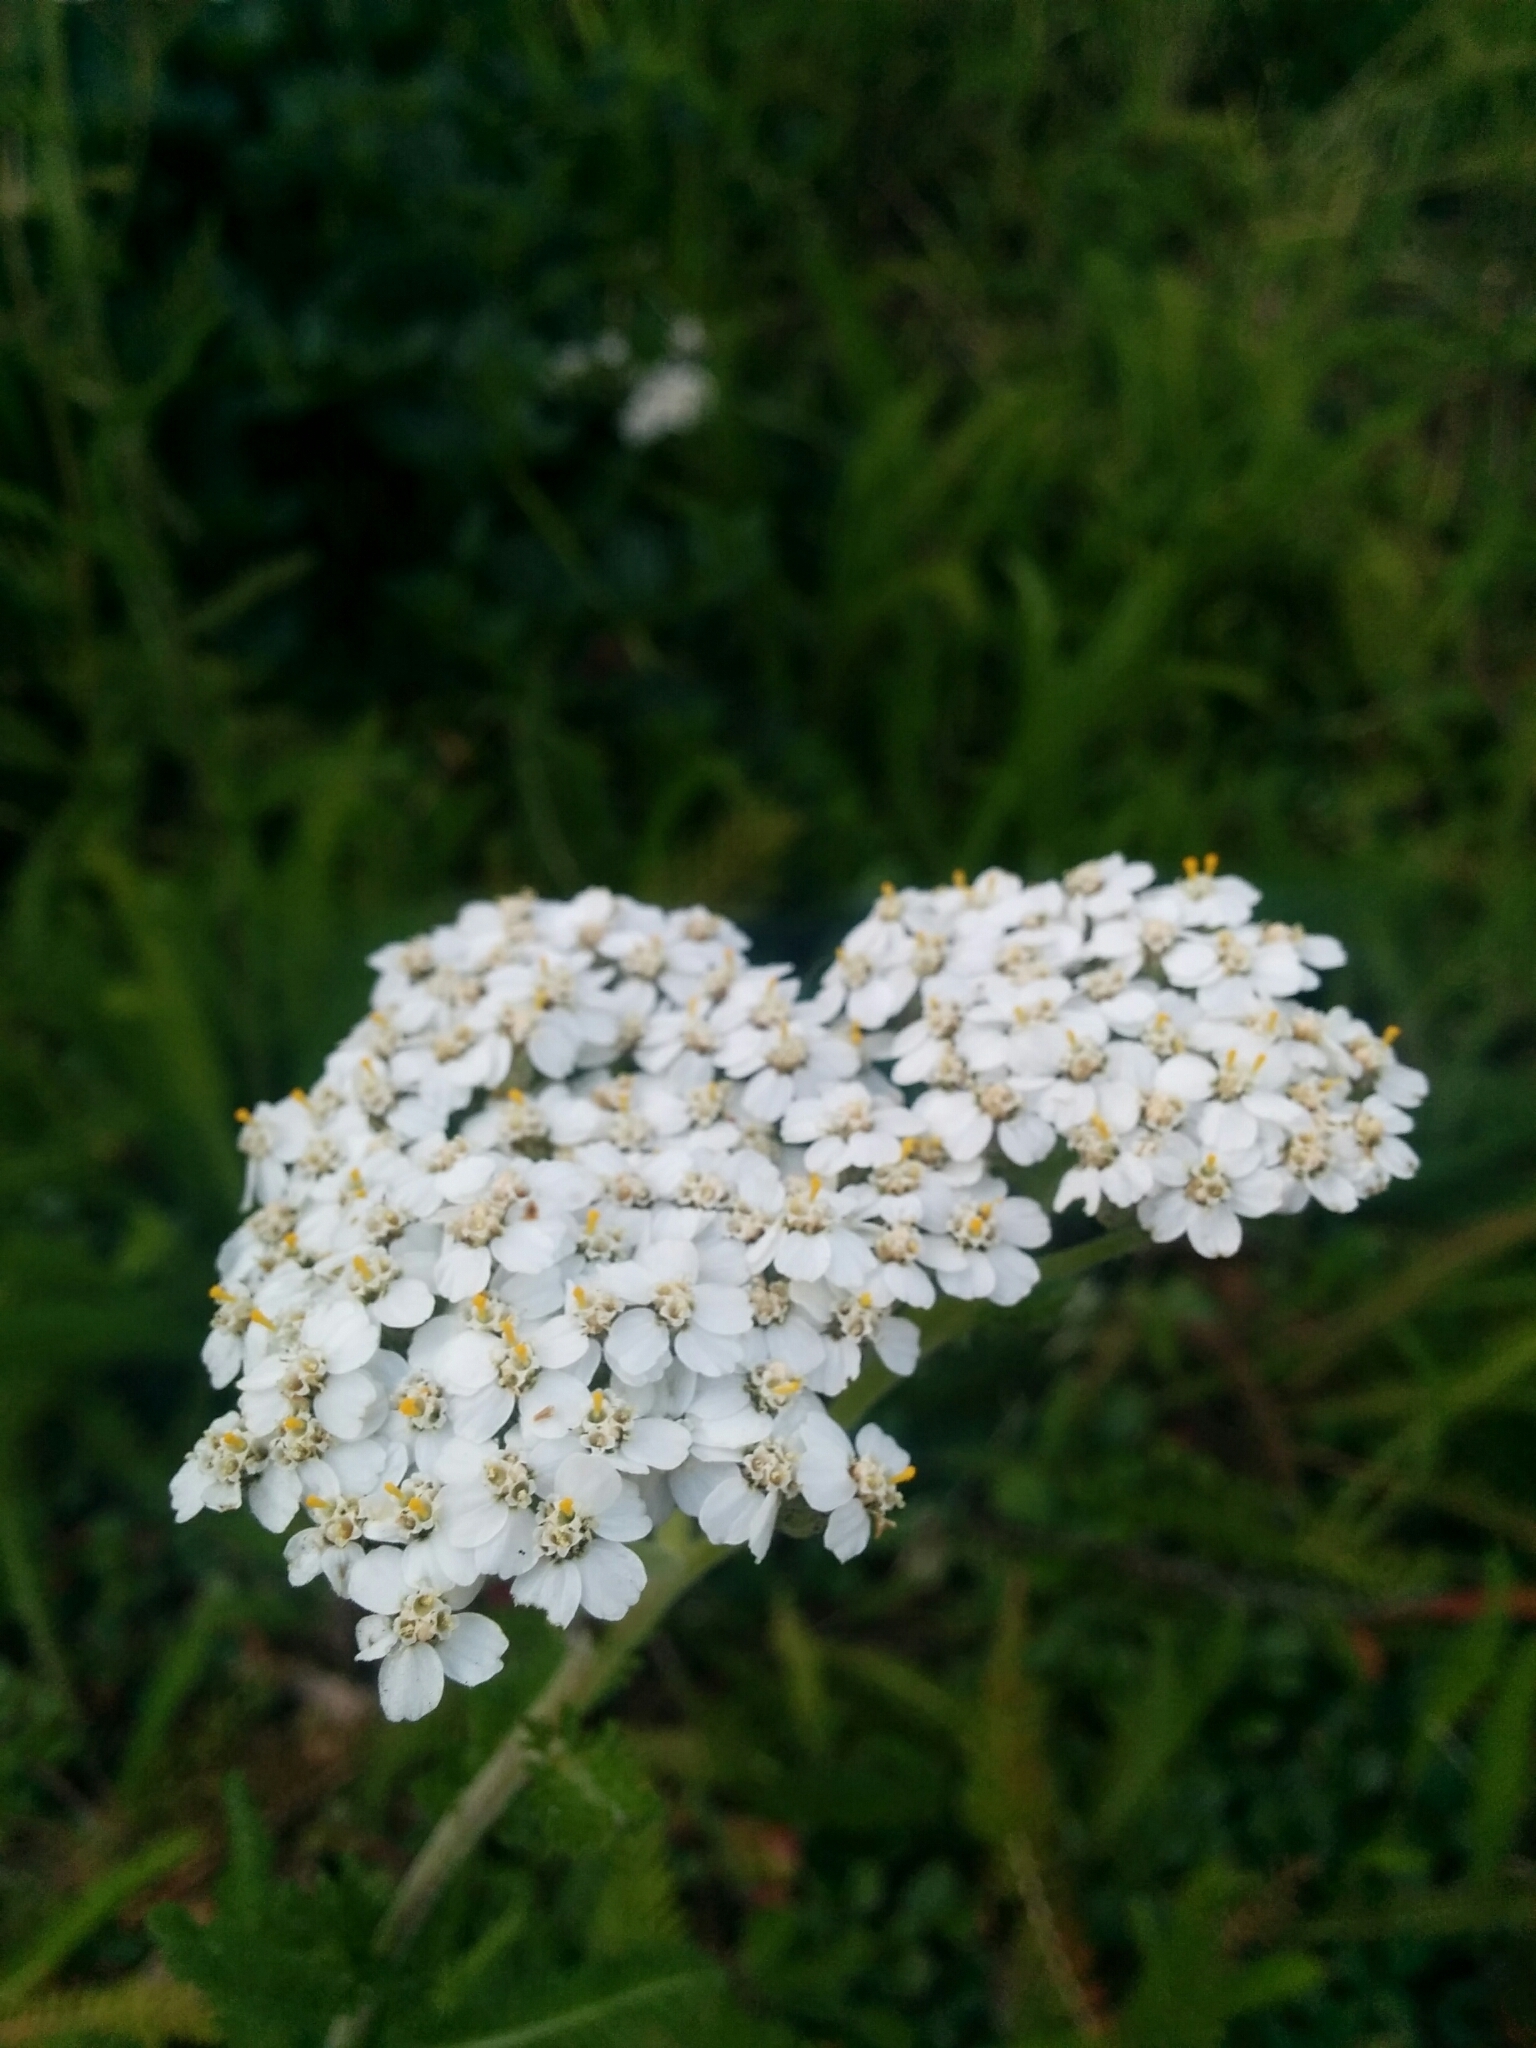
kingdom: Plantae
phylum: Tracheophyta
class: Magnoliopsida
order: Asterales
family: Asteraceae
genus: Achillea
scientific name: Achillea millefolium
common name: Yarrow
